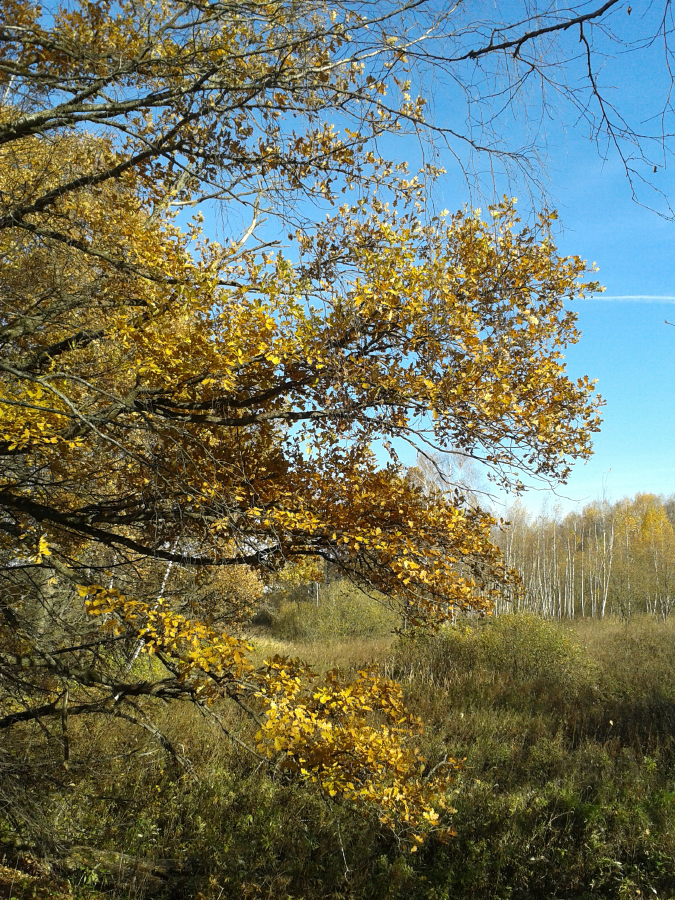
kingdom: Plantae
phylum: Tracheophyta
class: Magnoliopsida
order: Fagales
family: Fagaceae
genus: Quercus
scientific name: Quercus robur
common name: Pedunculate oak
